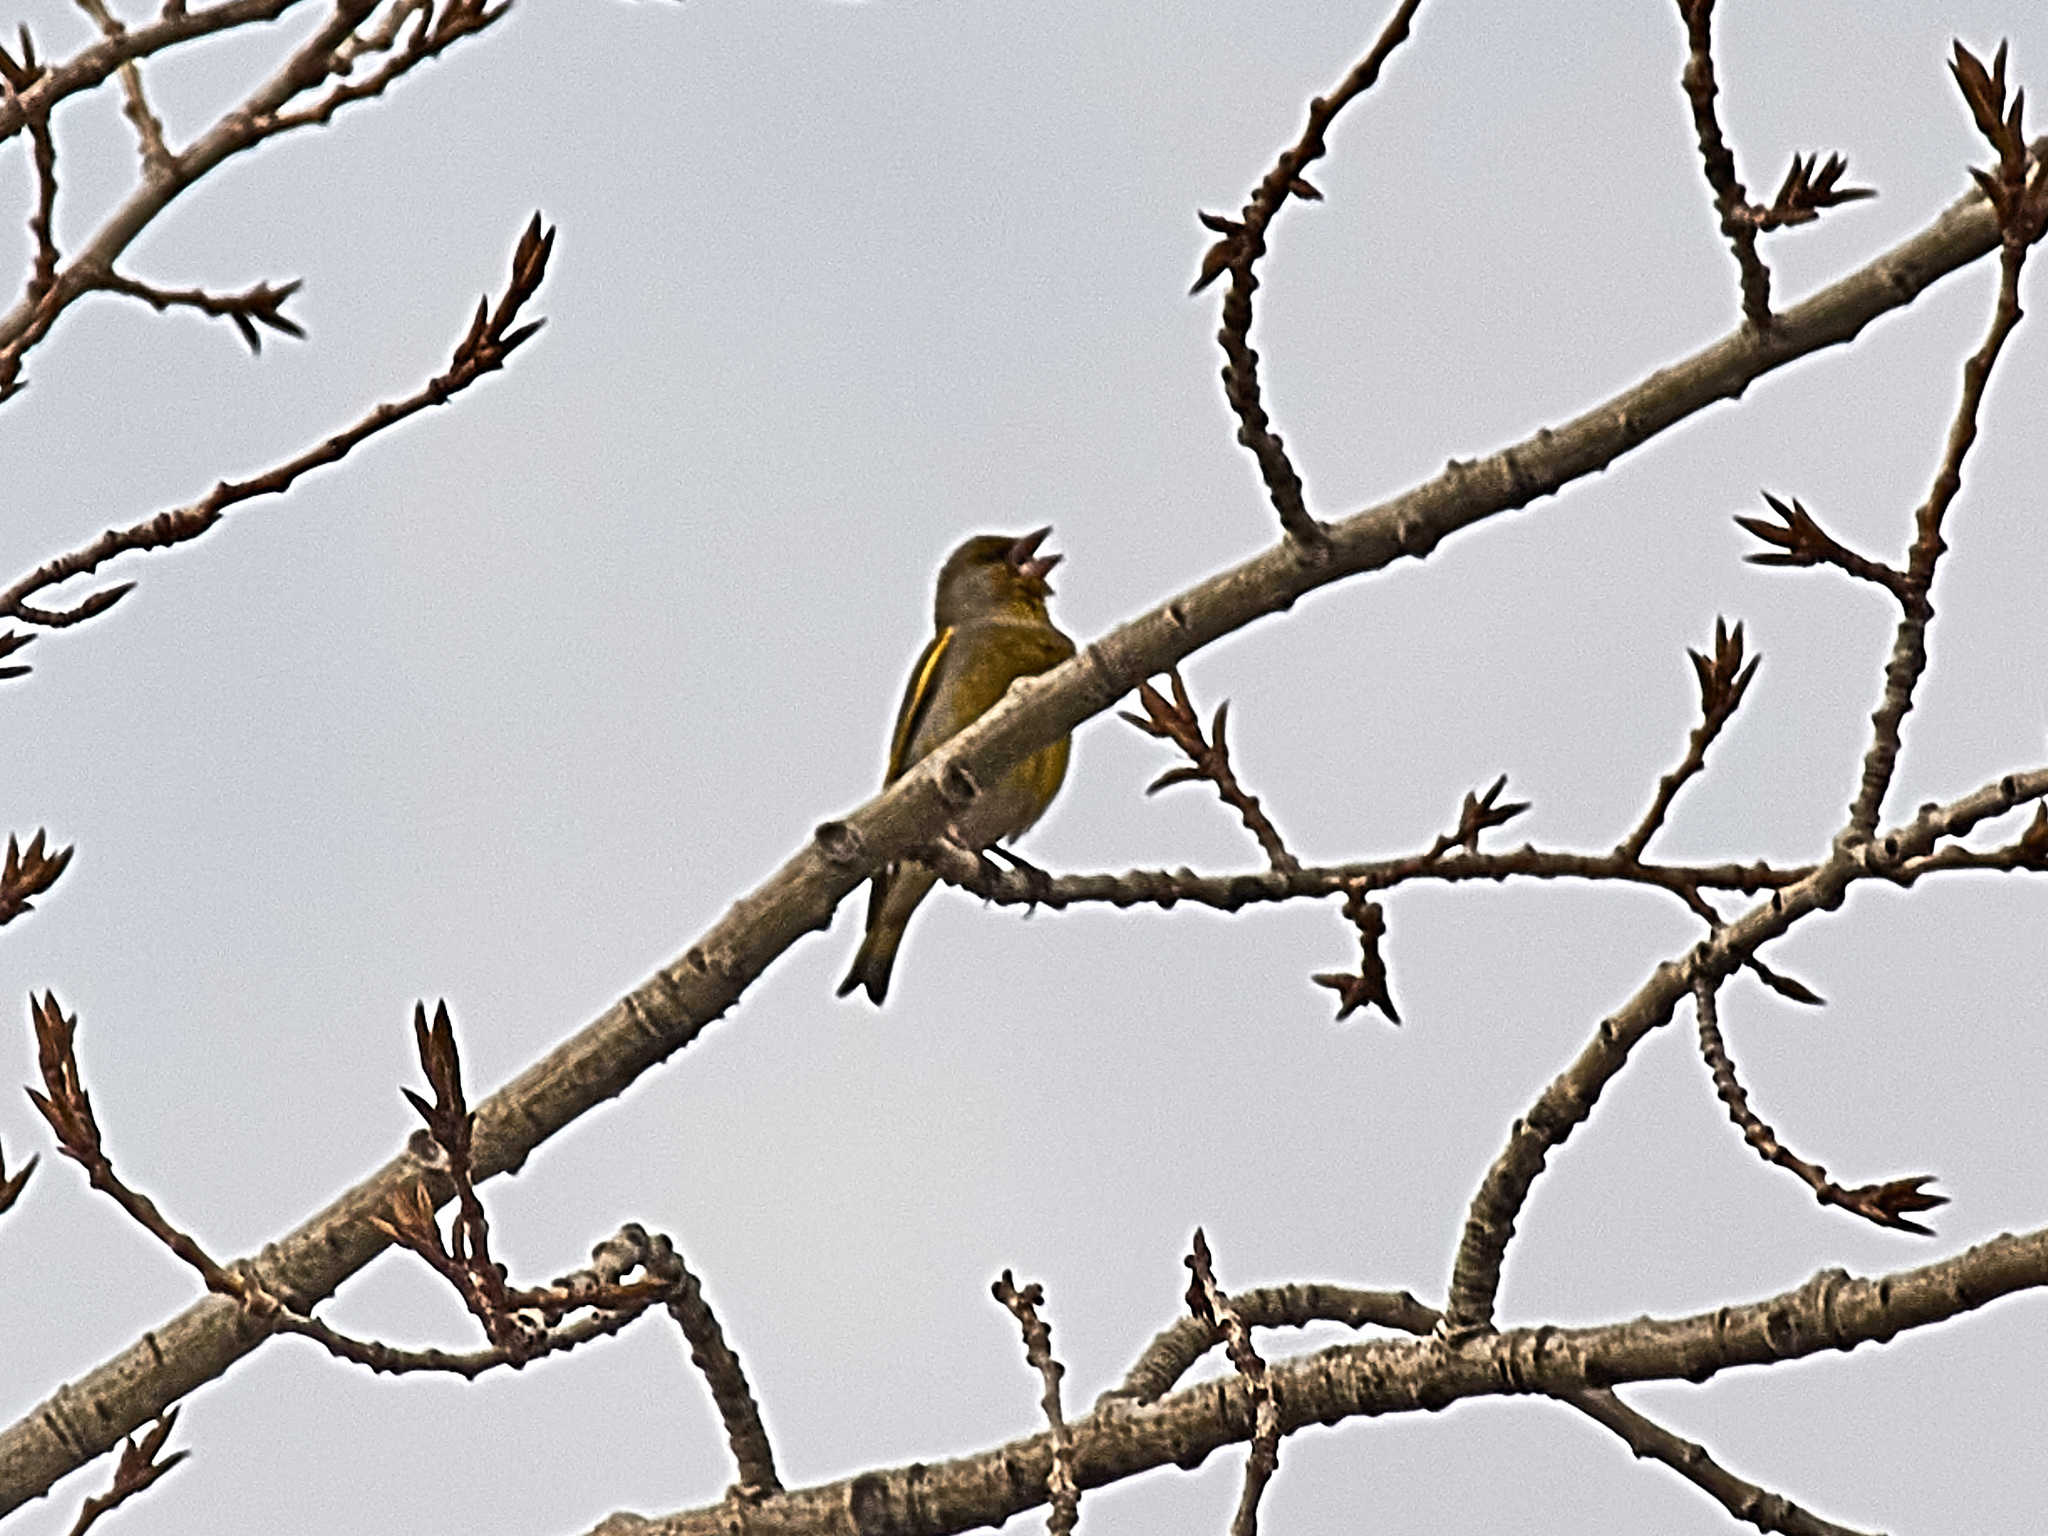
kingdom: Plantae
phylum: Tracheophyta
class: Liliopsida
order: Poales
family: Poaceae
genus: Chloris
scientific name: Chloris chloris
